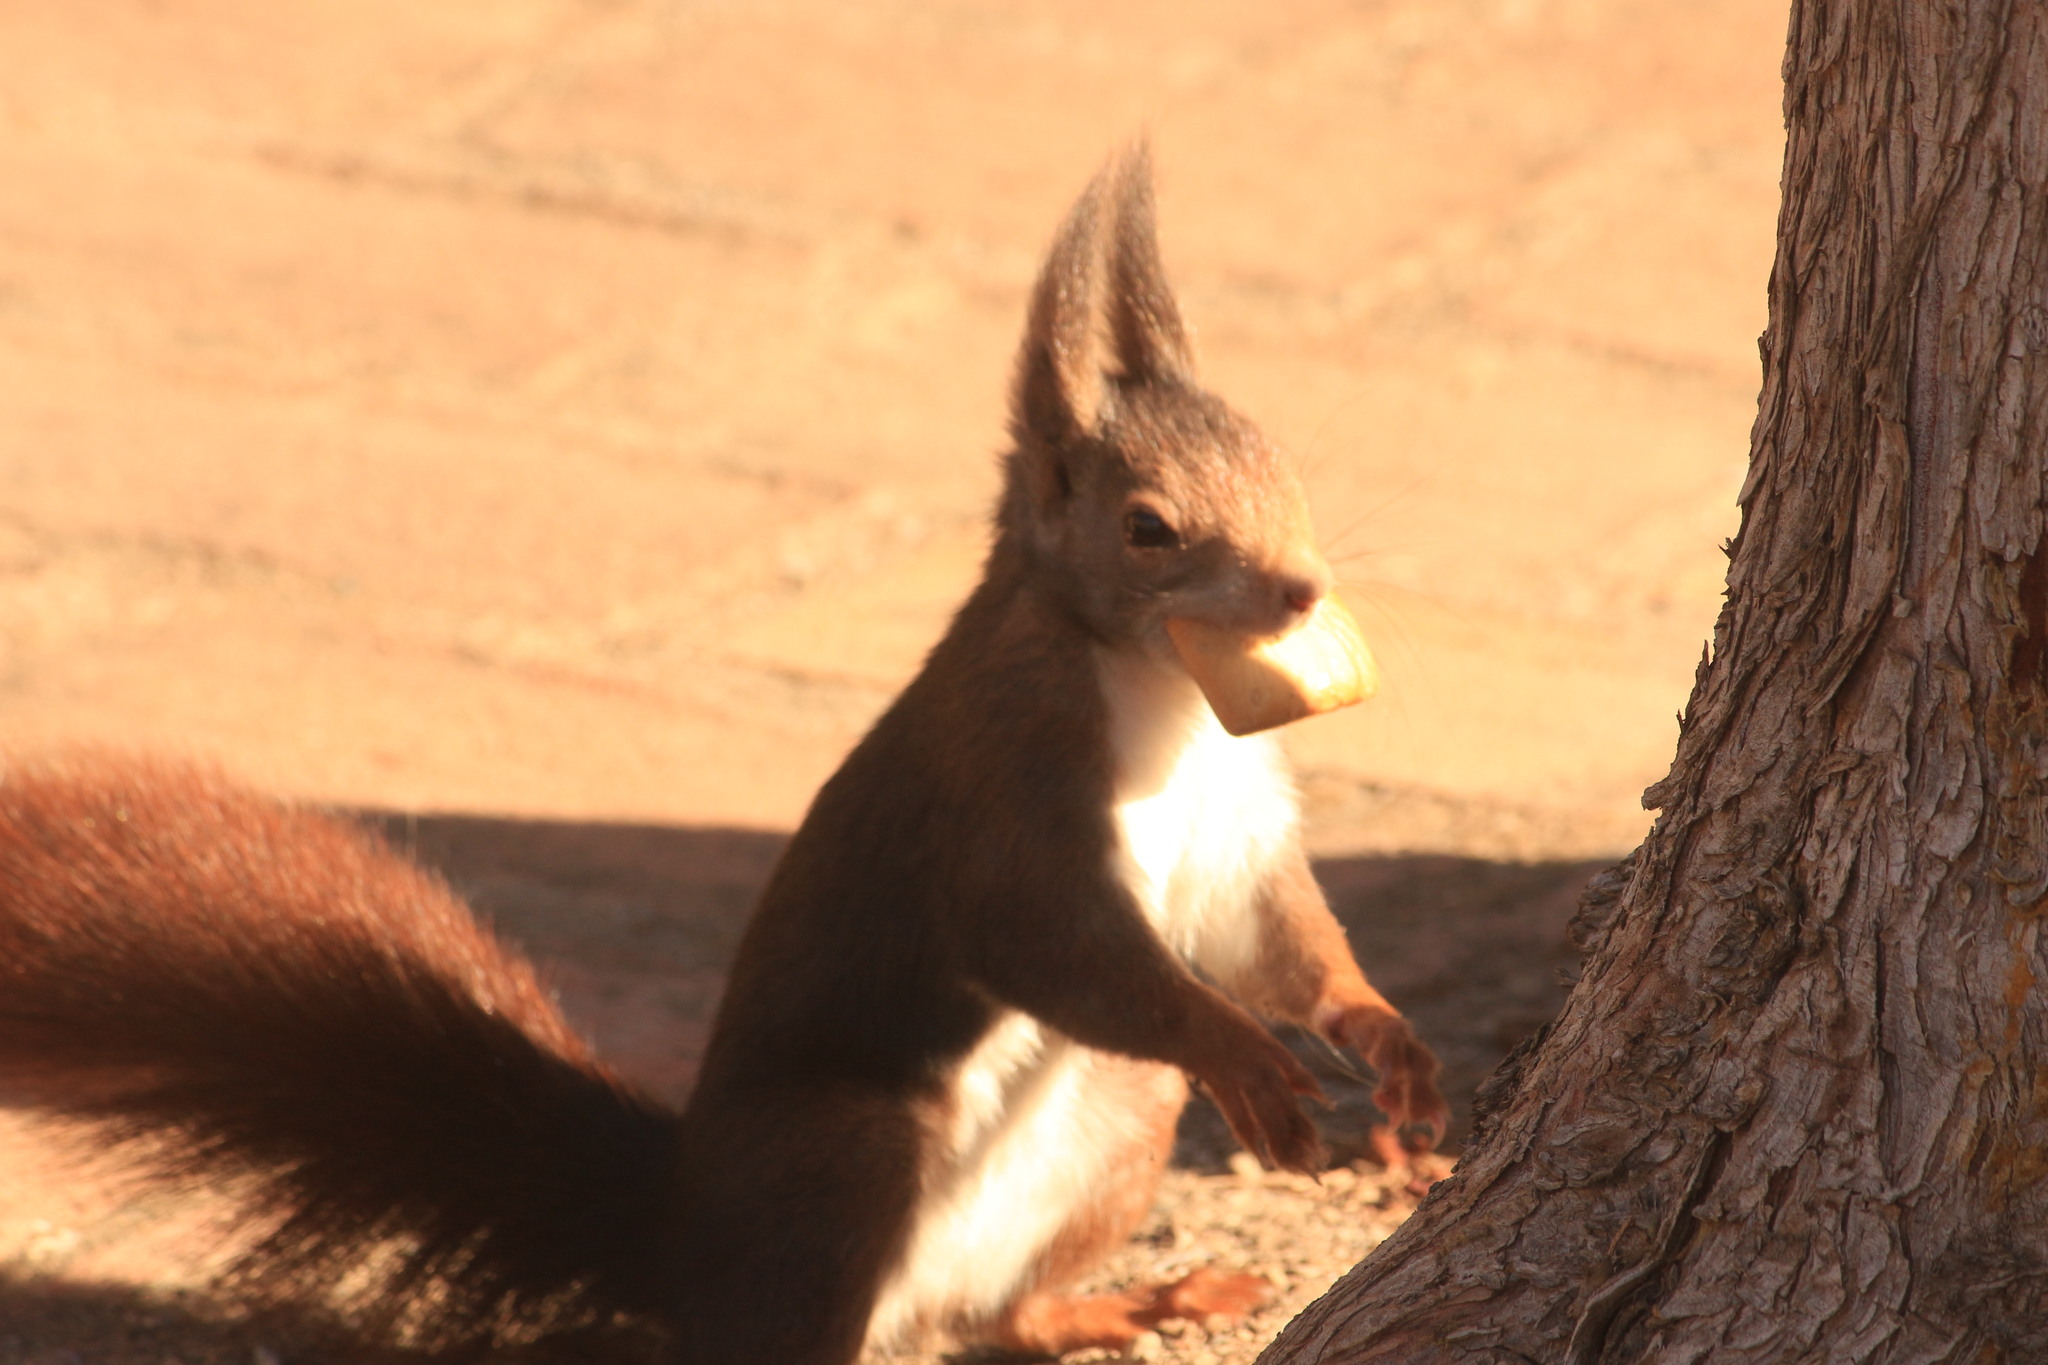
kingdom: Animalia
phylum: Chordata
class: Mammalia
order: Rodentia
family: Sciuridae
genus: Sciurus
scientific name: Sciurus vulgaris
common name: Eurasian red squirrel
